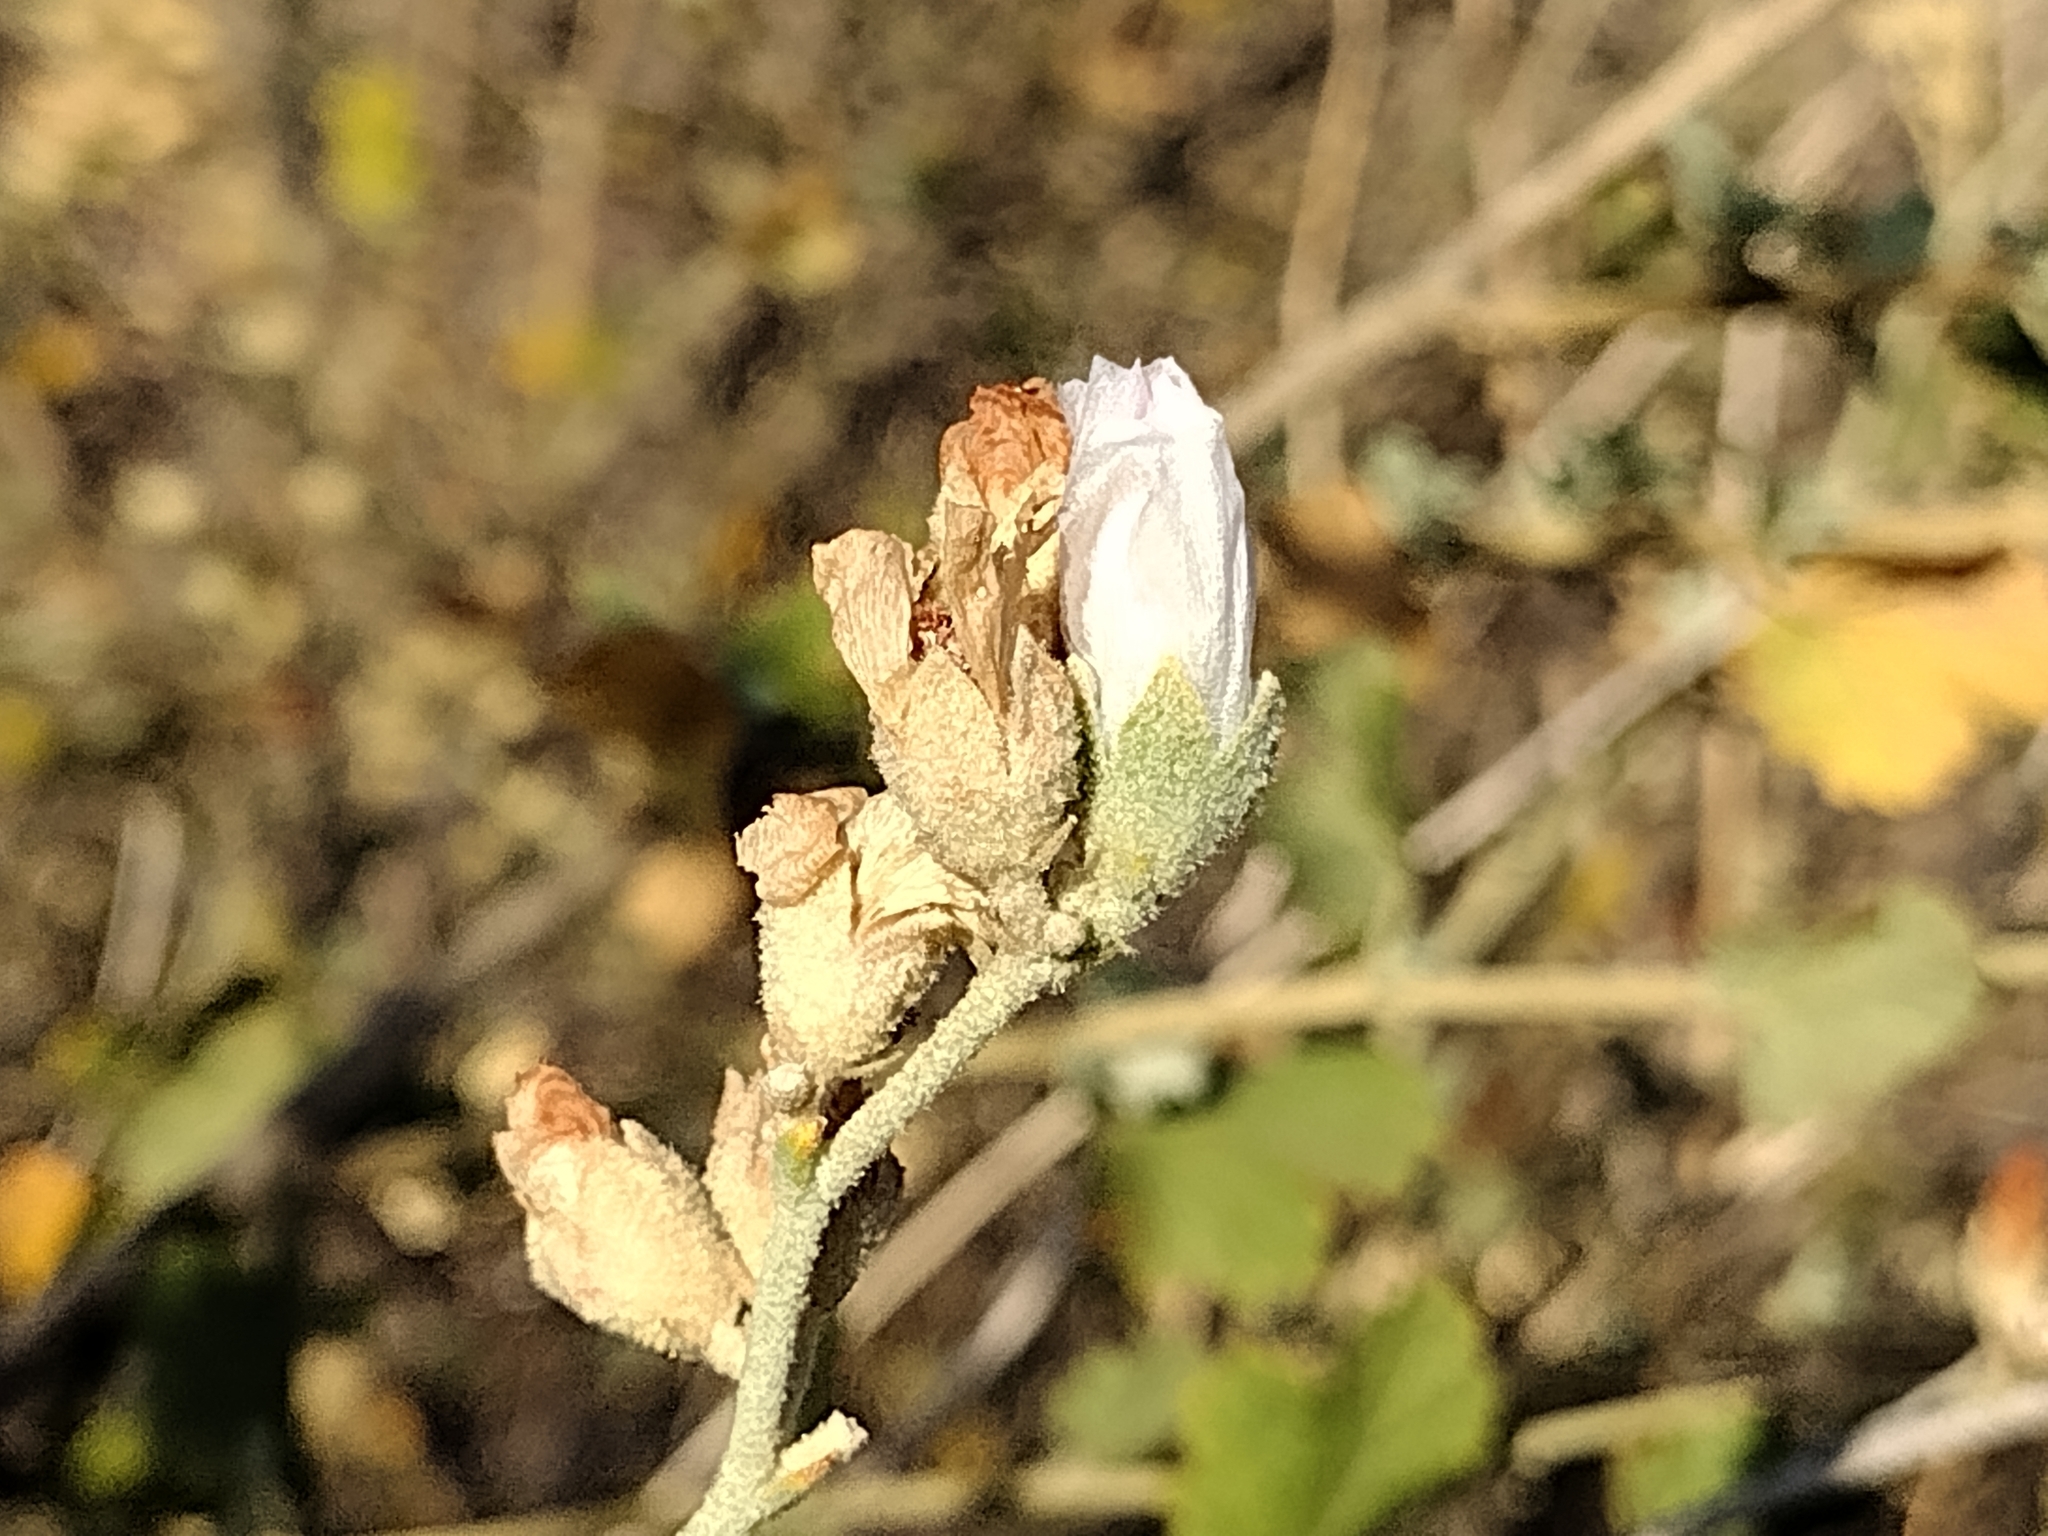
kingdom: Plantae
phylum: Tracheophyta
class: Magnoliopsida
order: Malvales
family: Malvaceae
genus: Malacothamnus
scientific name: Malacothamnus fasciculatus
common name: Sant cruz island bush-mallow
